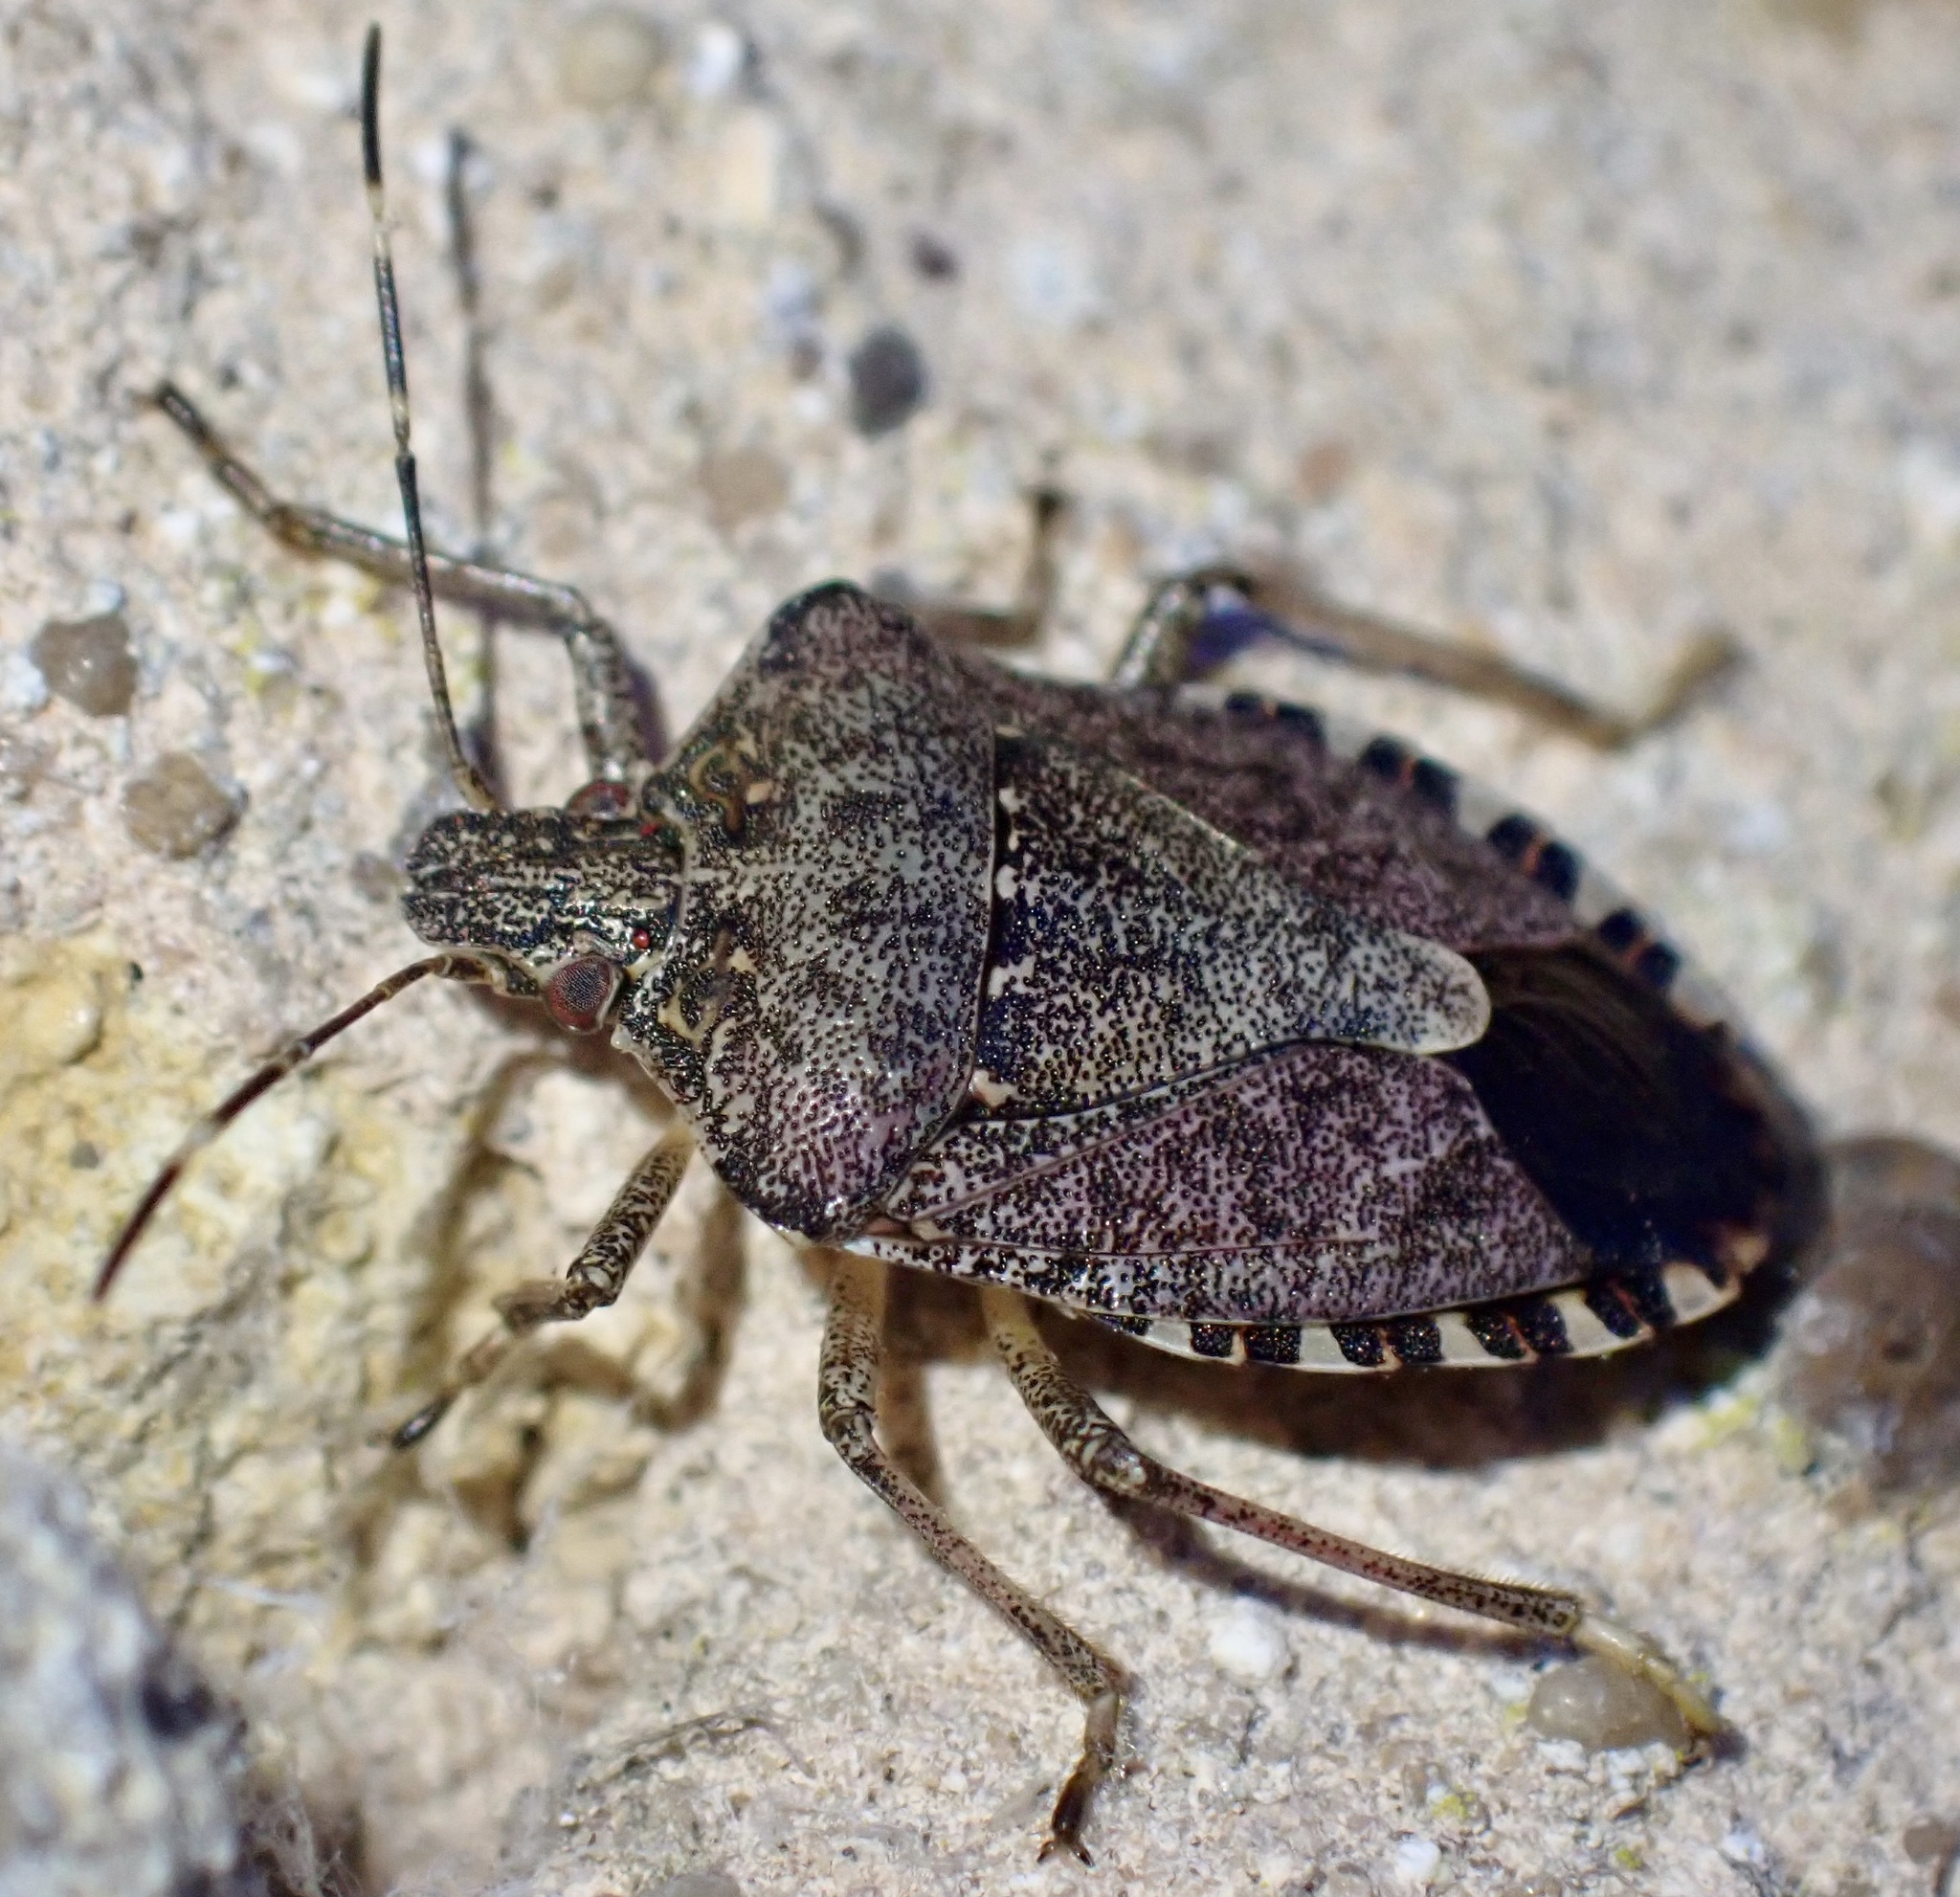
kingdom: Animalia
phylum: Arthropoda
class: Insecta
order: Hemiptera
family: Pentatomidae
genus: Halyomorpha
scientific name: Halyomorpha halys
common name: Brown marmorated stink bug
